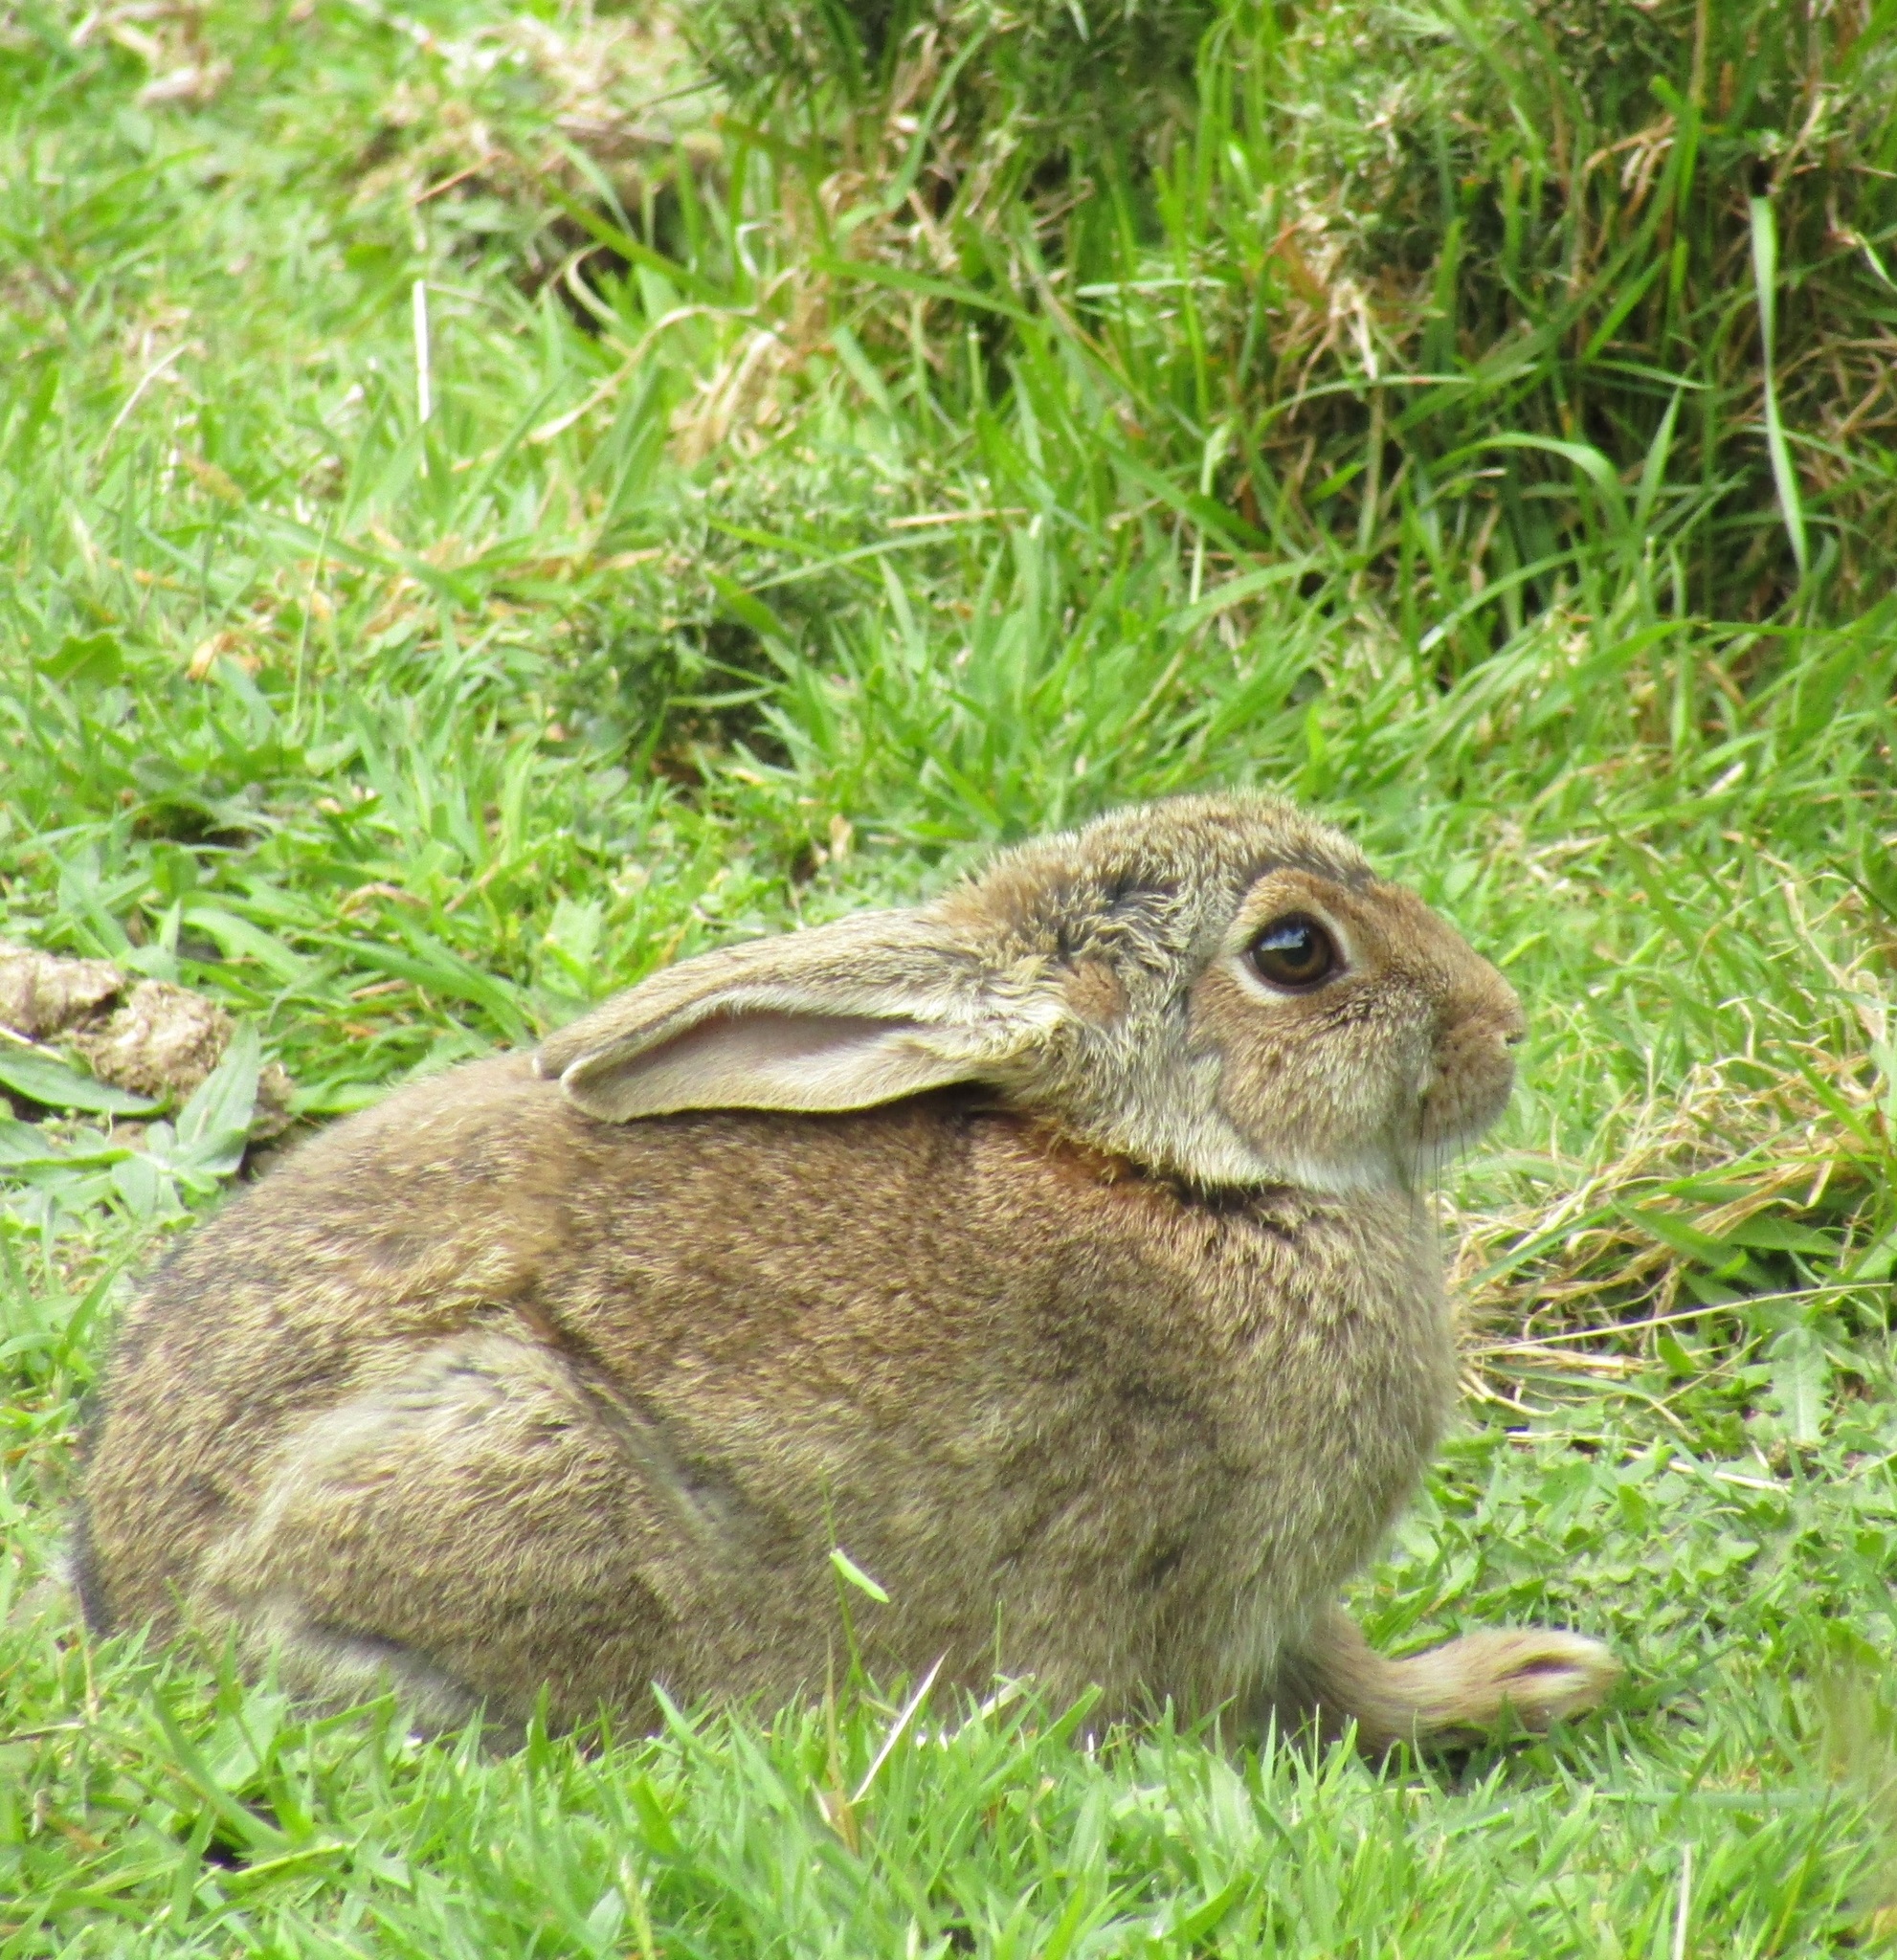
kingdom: Animalia
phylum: Chordata
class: Mammalia
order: Lagomorpha
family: Leporidae
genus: Oryctolagus
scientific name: Oryctolagus cuniculus
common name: European rabbit
